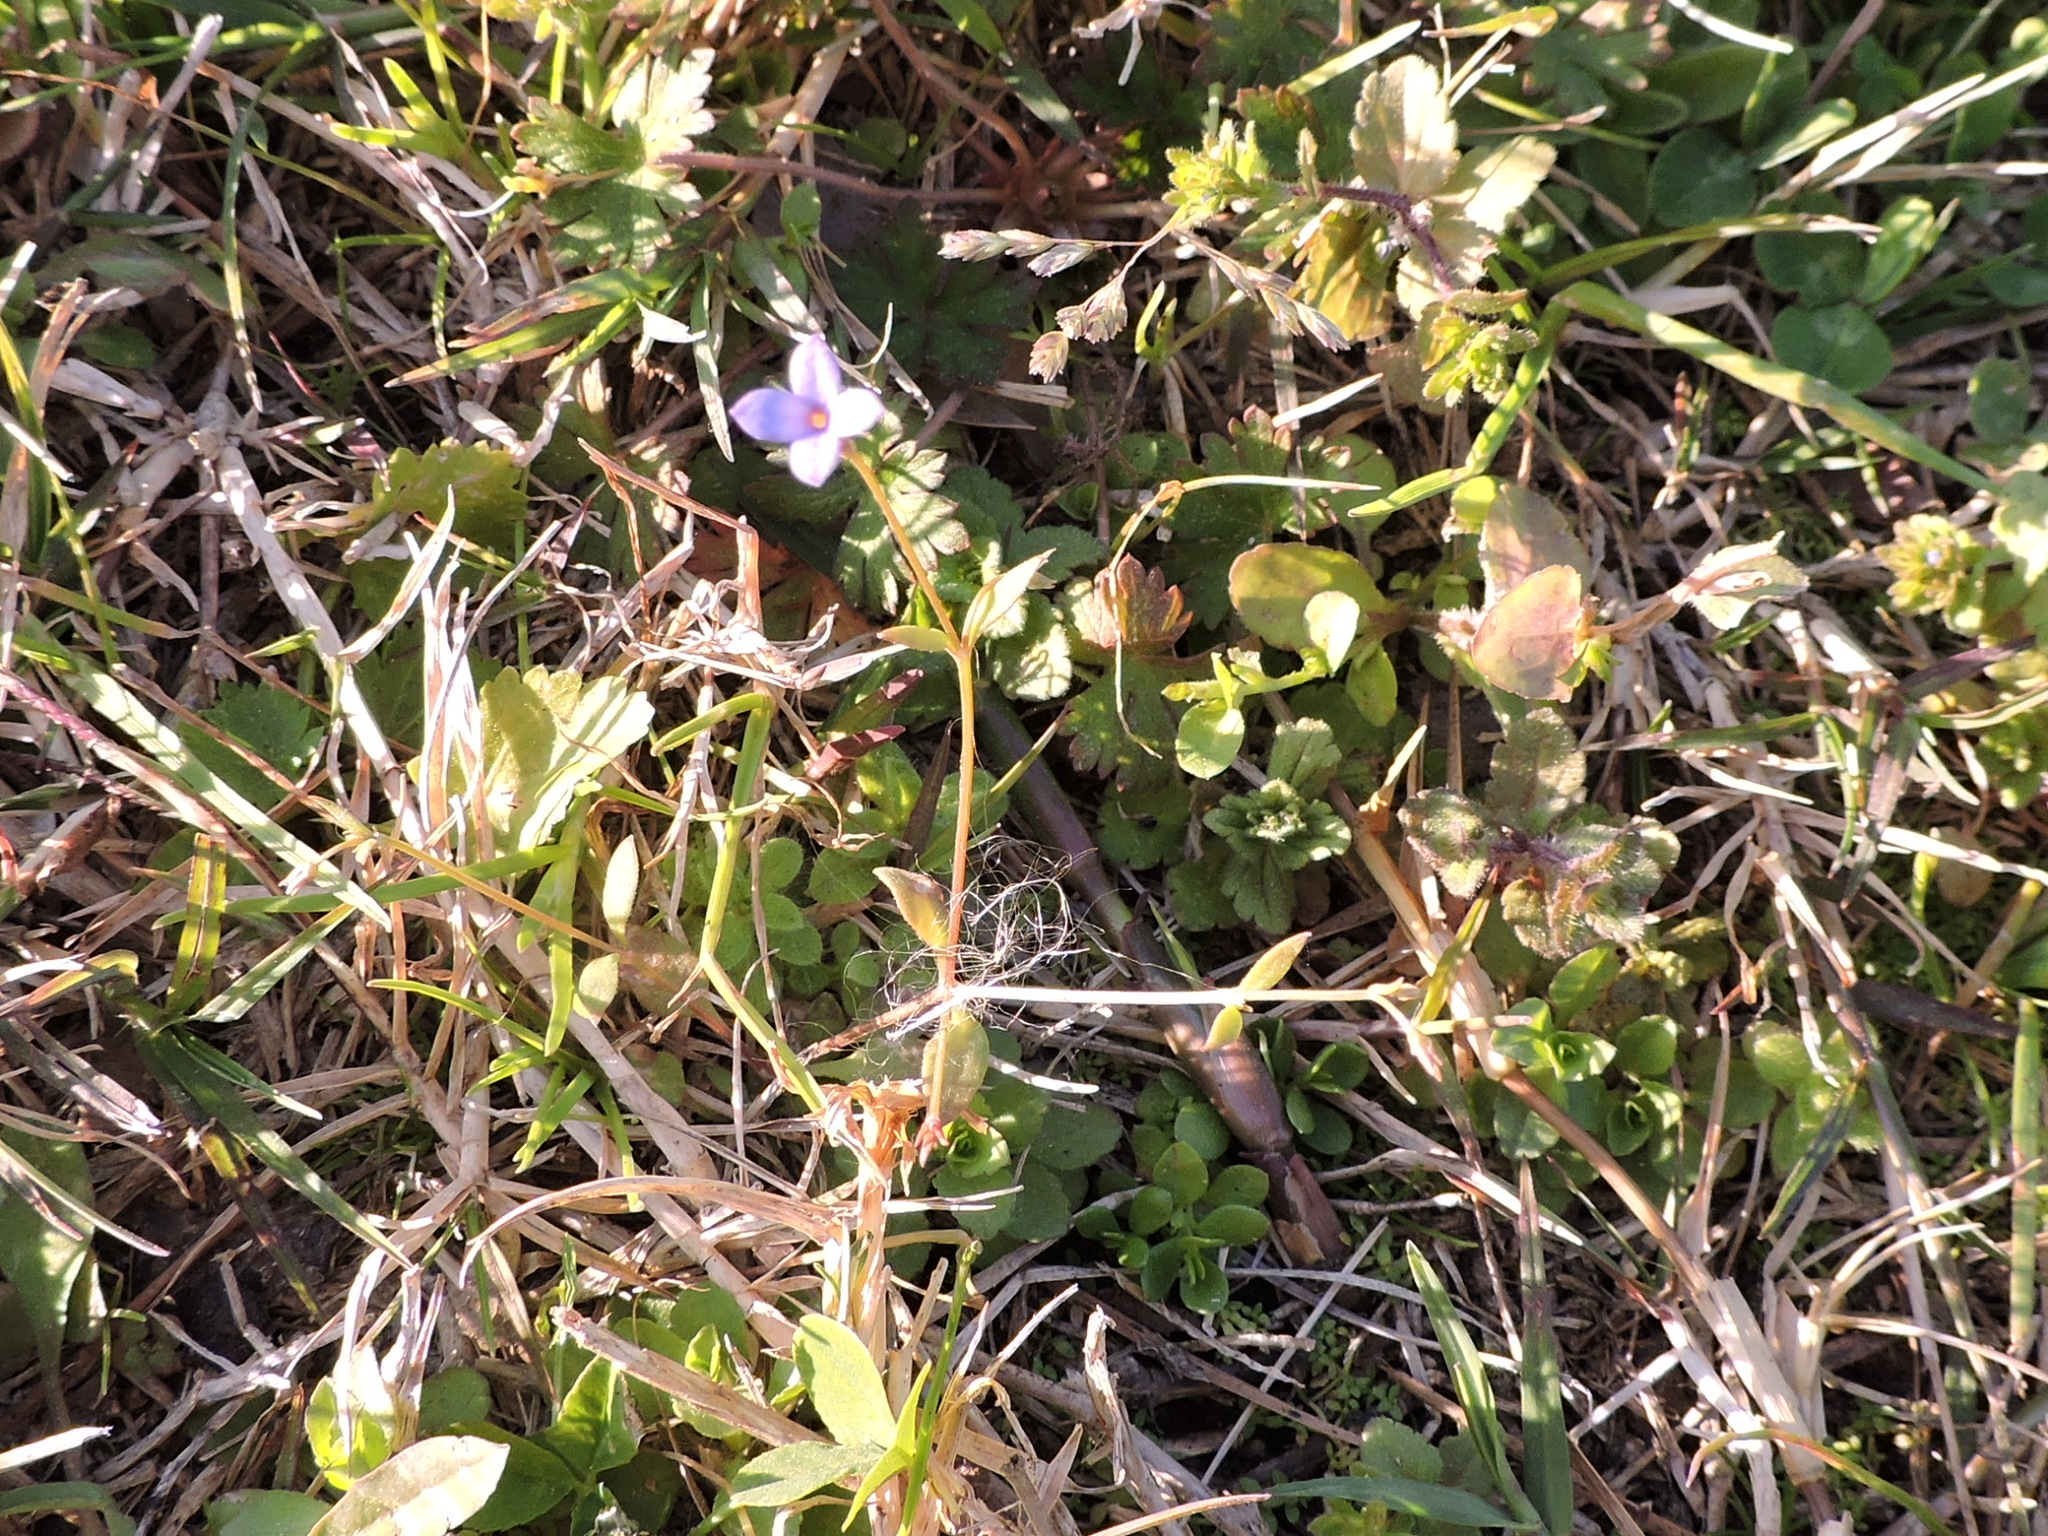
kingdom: Plantae
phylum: Tracheophyta
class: Magnoliopsida
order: Gentianales
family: Rubiaceae
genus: Houstonia
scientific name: Houstonia pusilla
